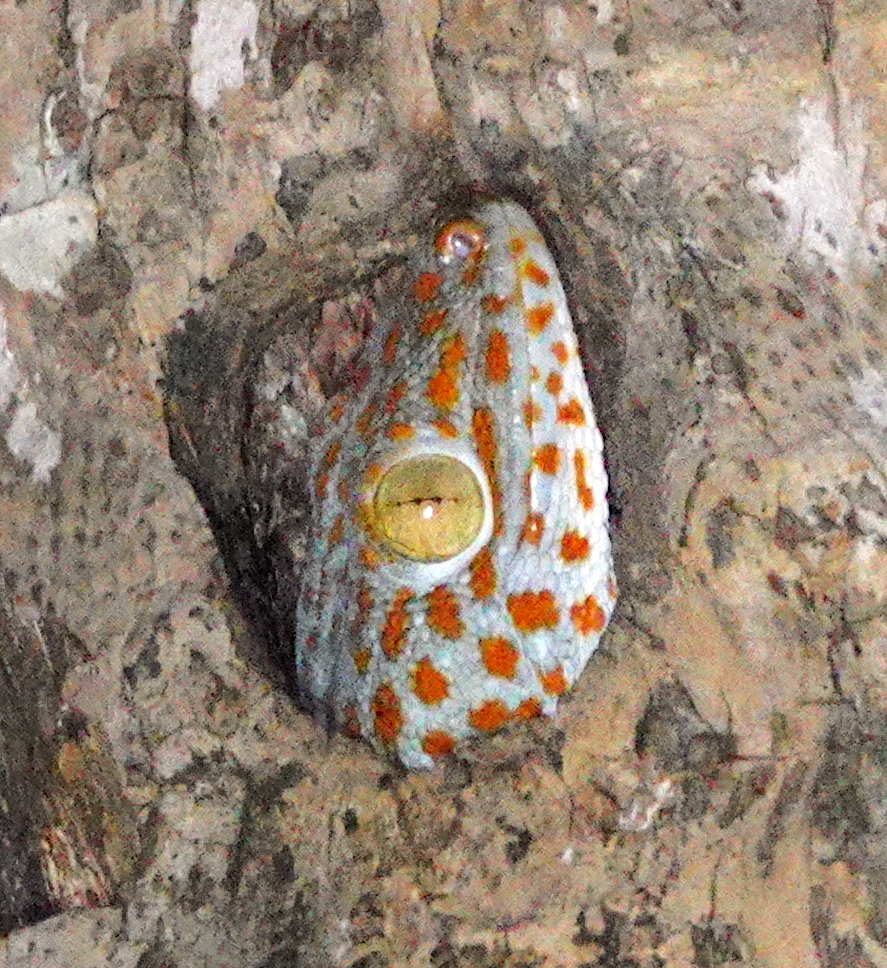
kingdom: Animalia
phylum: Chordata
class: Squamata
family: Gekkonidae
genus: Gekko
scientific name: Gekko gecko
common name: Tokay gecko
